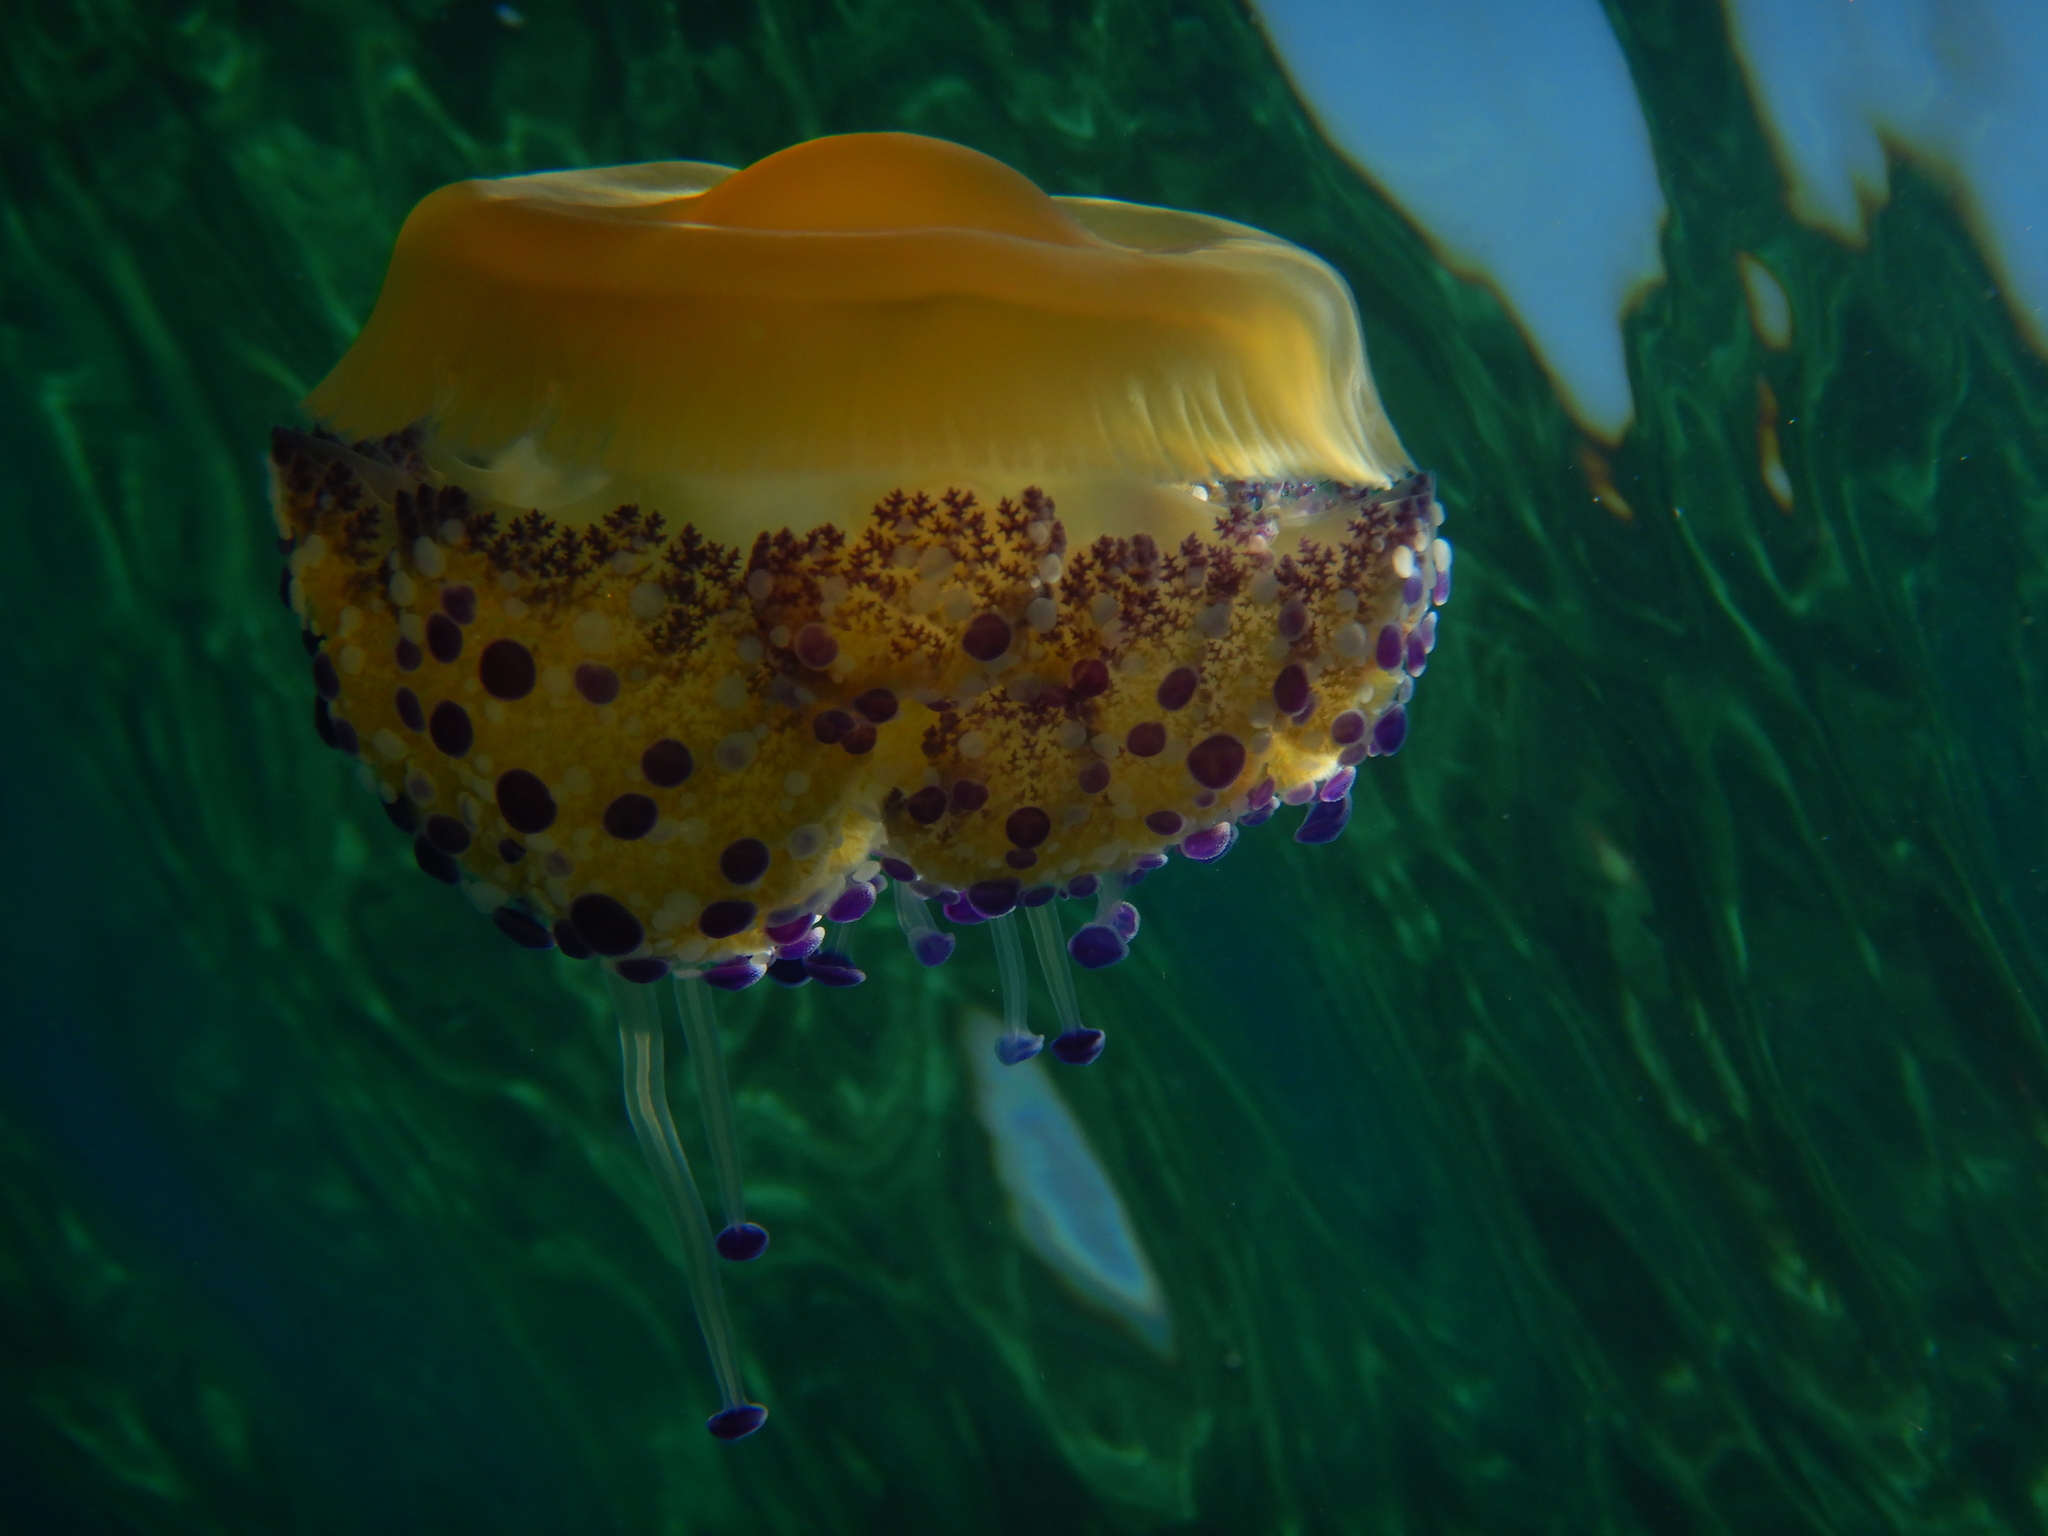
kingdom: Animalia
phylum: Cnidaria
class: Scyphozoa
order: Rhizostomeae
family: Cepheidae
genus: Cotylorhiza
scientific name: Cotylorhiza tuberculata
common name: Mediterranean jelly
